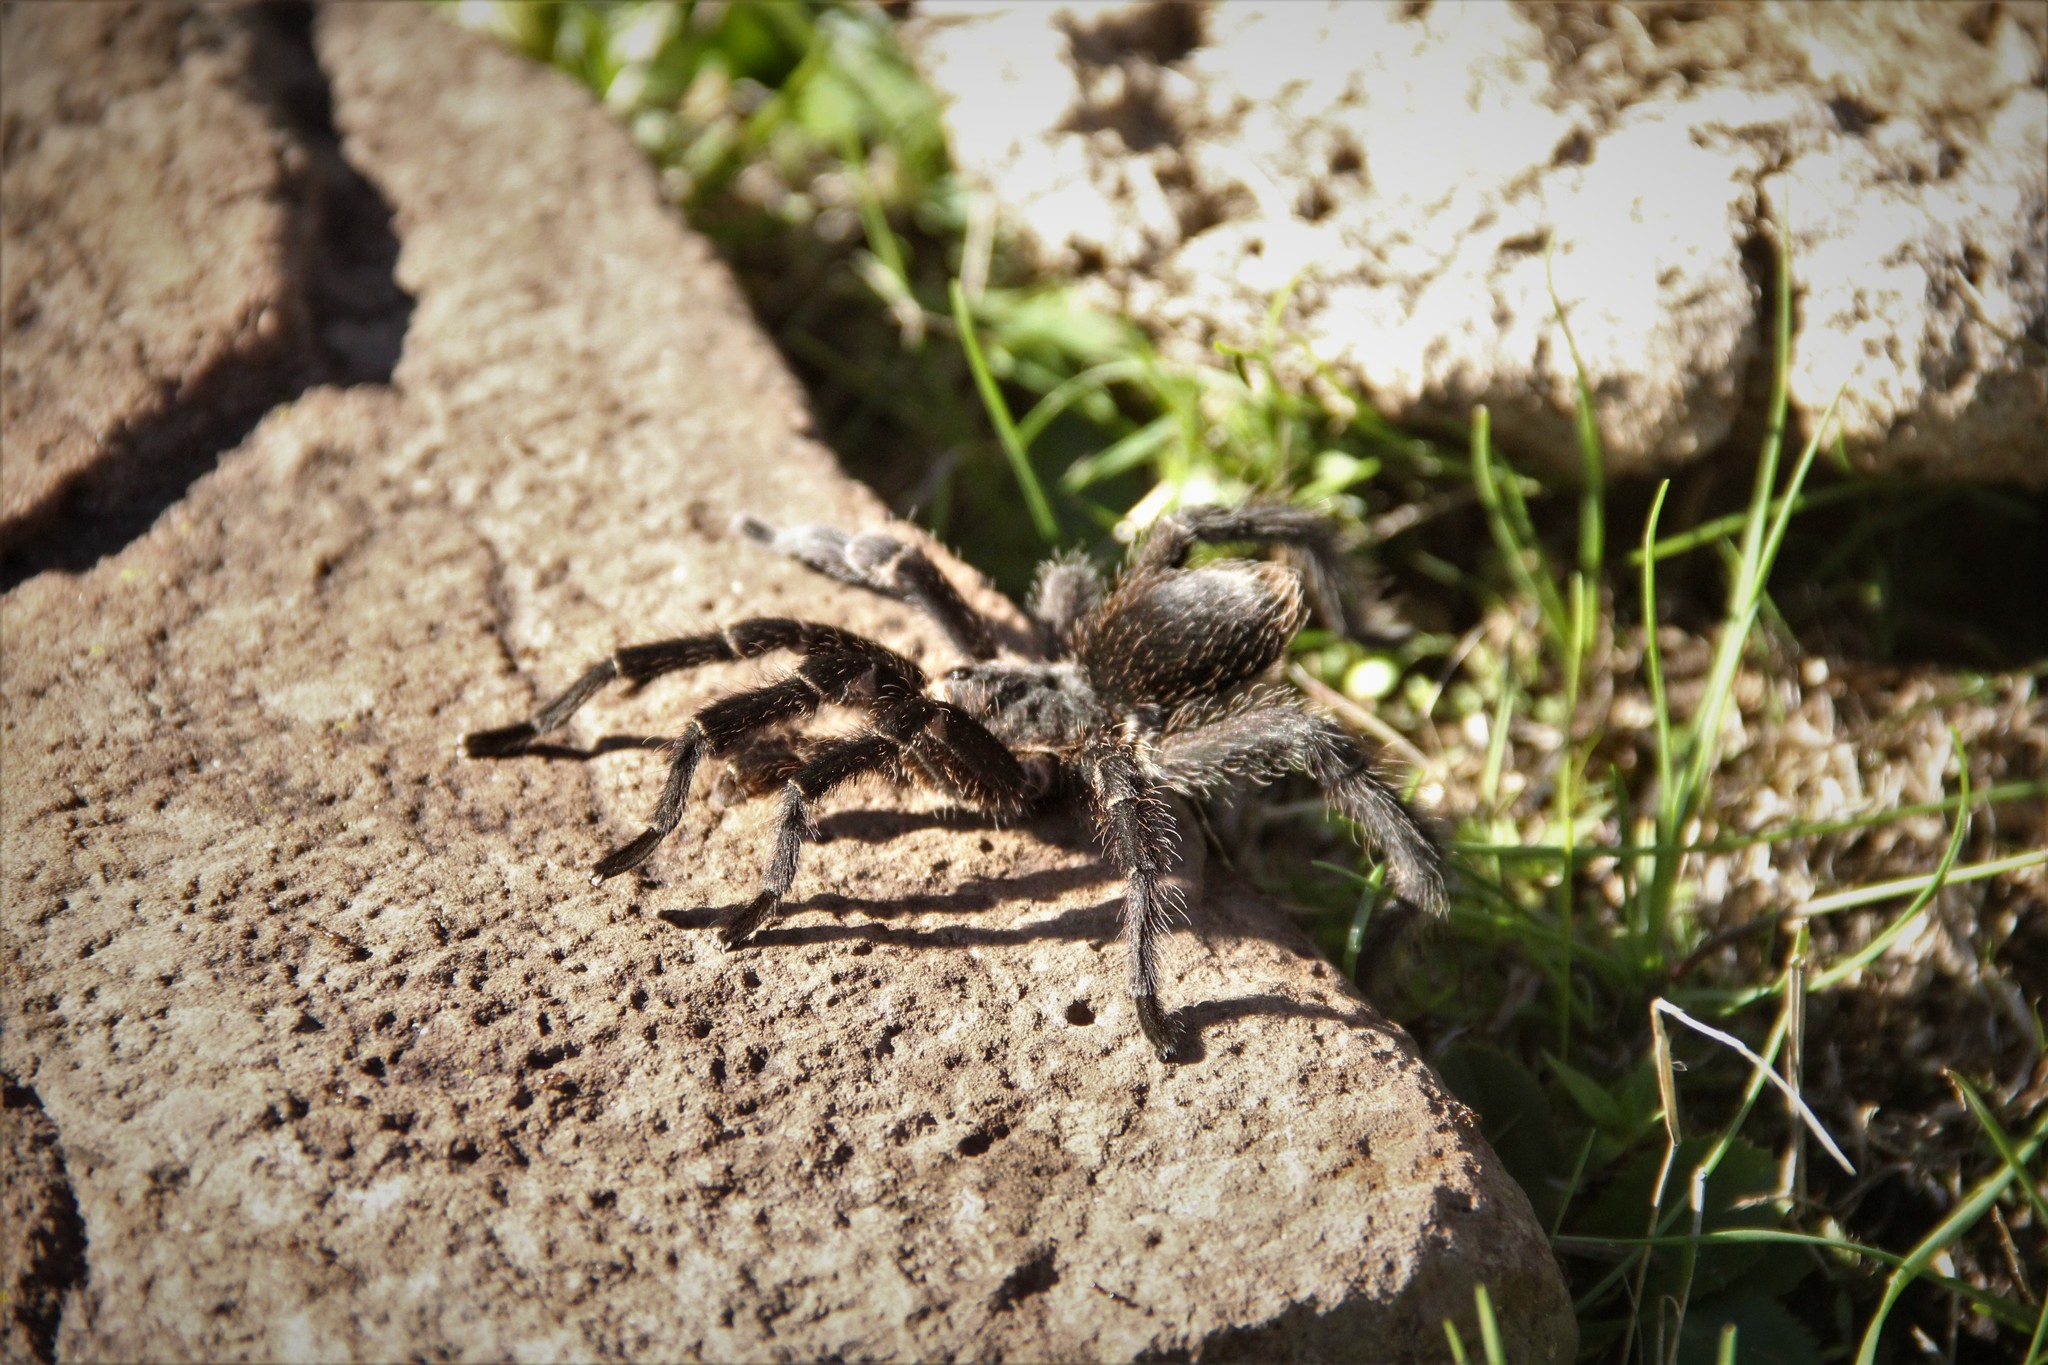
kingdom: Animalia
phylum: Arthropoda
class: Arachnida
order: Araneae
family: Theraphosidae
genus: Eupalaestrus
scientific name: Eupalaestrus weijenberghi
